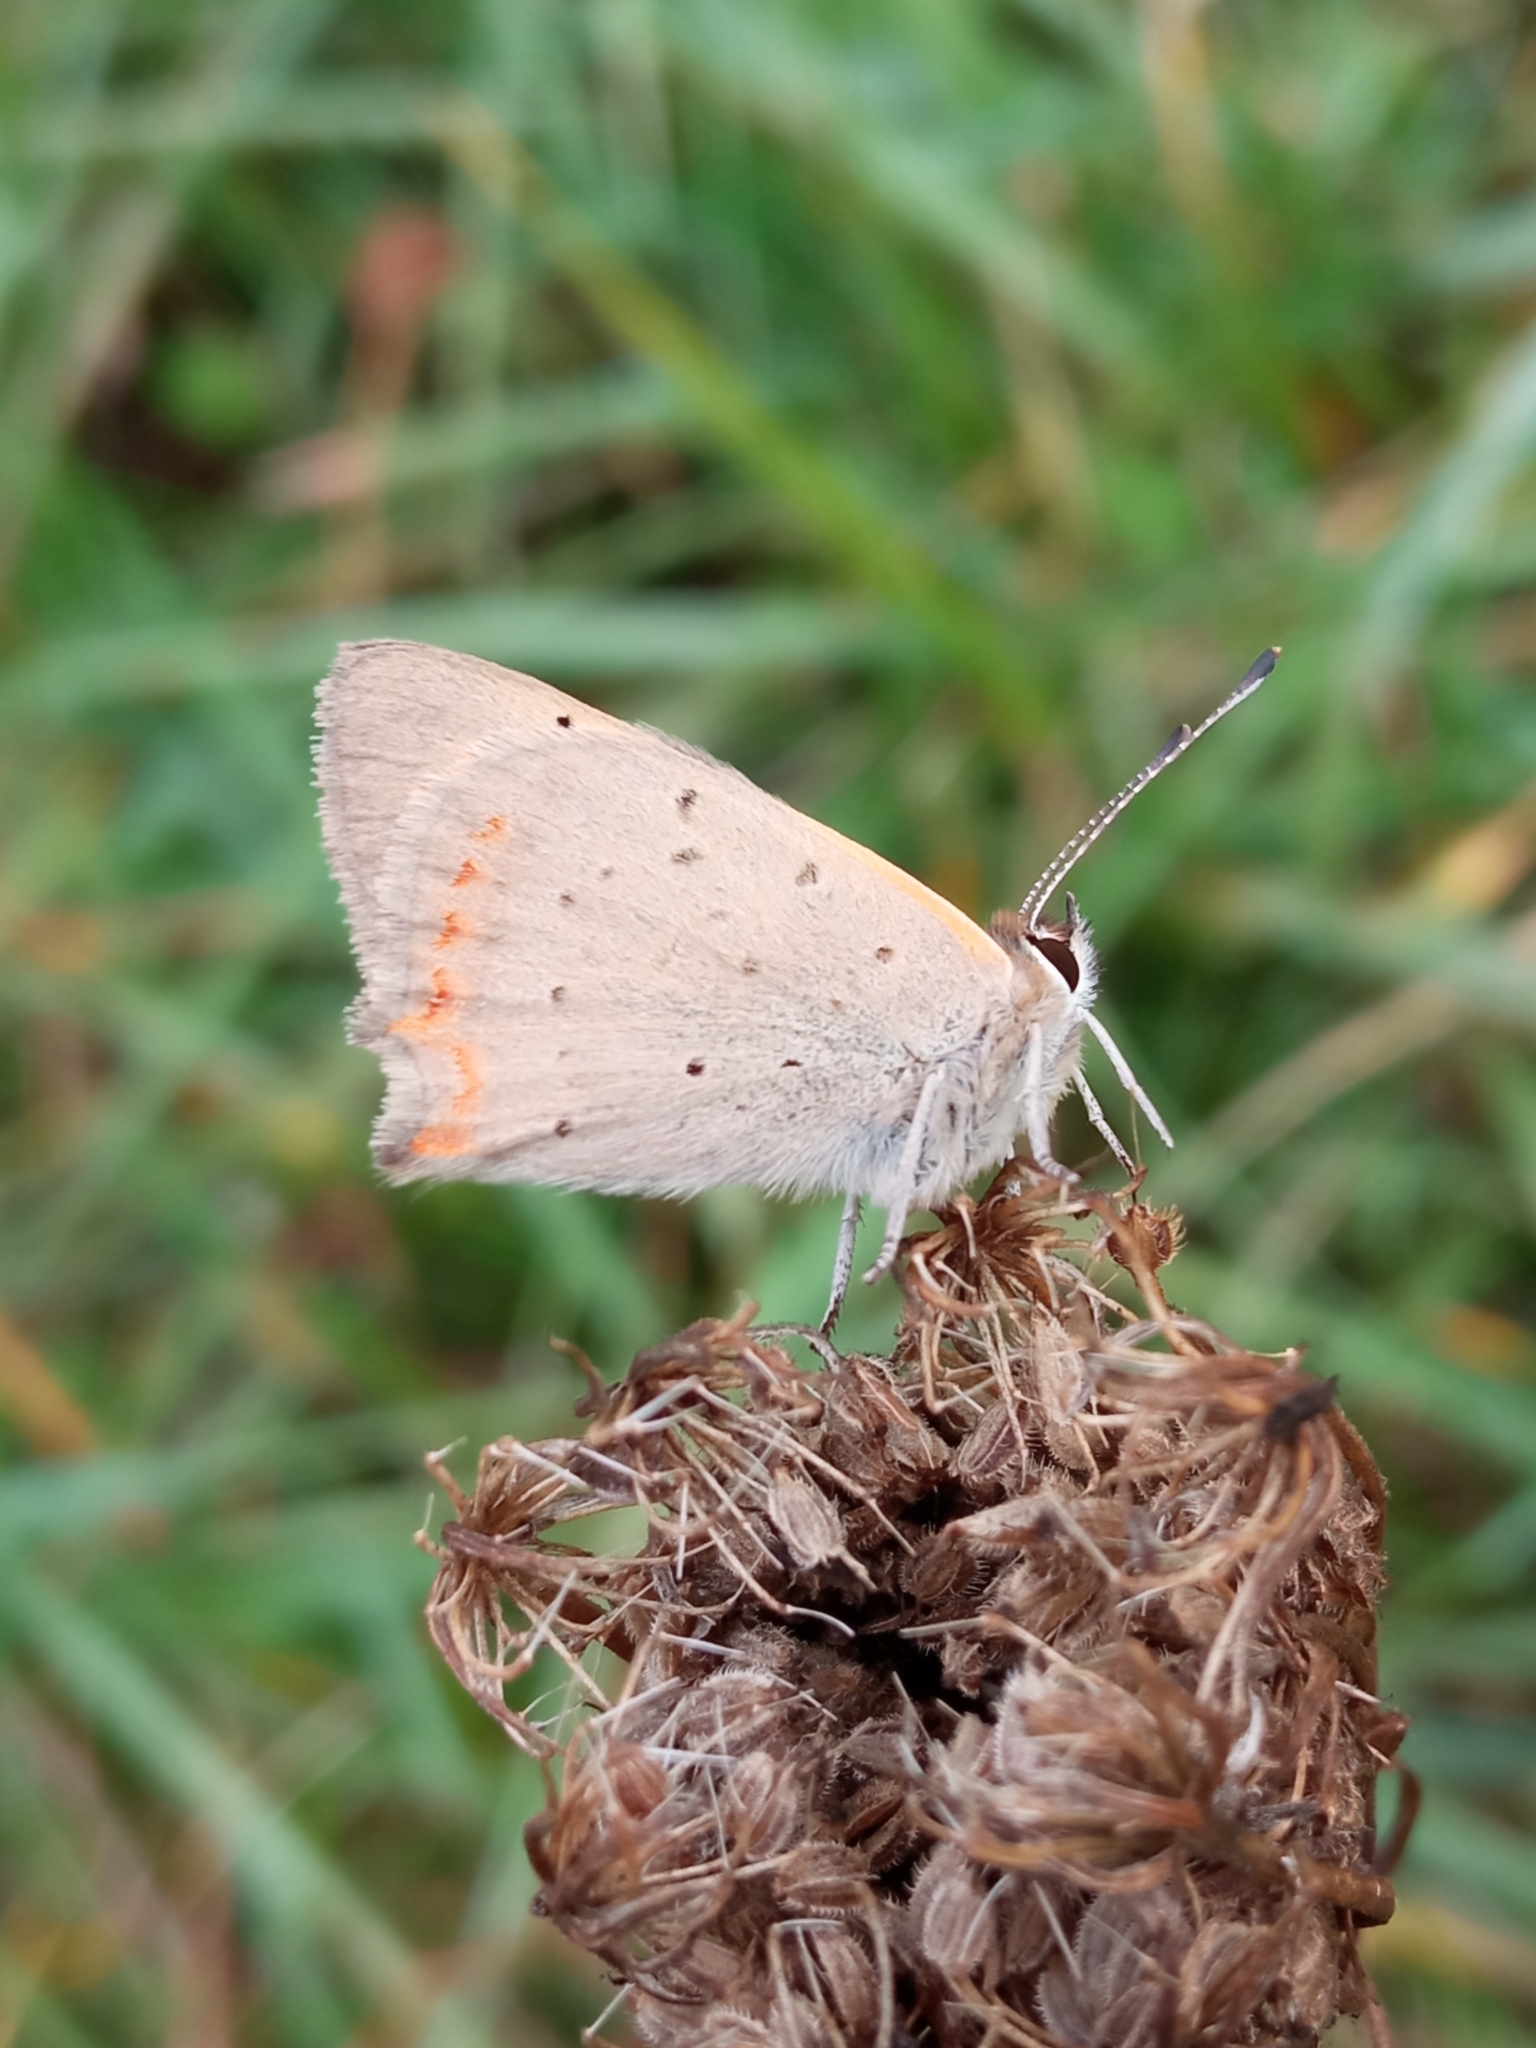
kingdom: Animalia
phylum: Arthropoda
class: Insecta
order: Lepidoptera
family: Lycaenidae
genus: Lycaena
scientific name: Lycaena phlaeas
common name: Small copper
